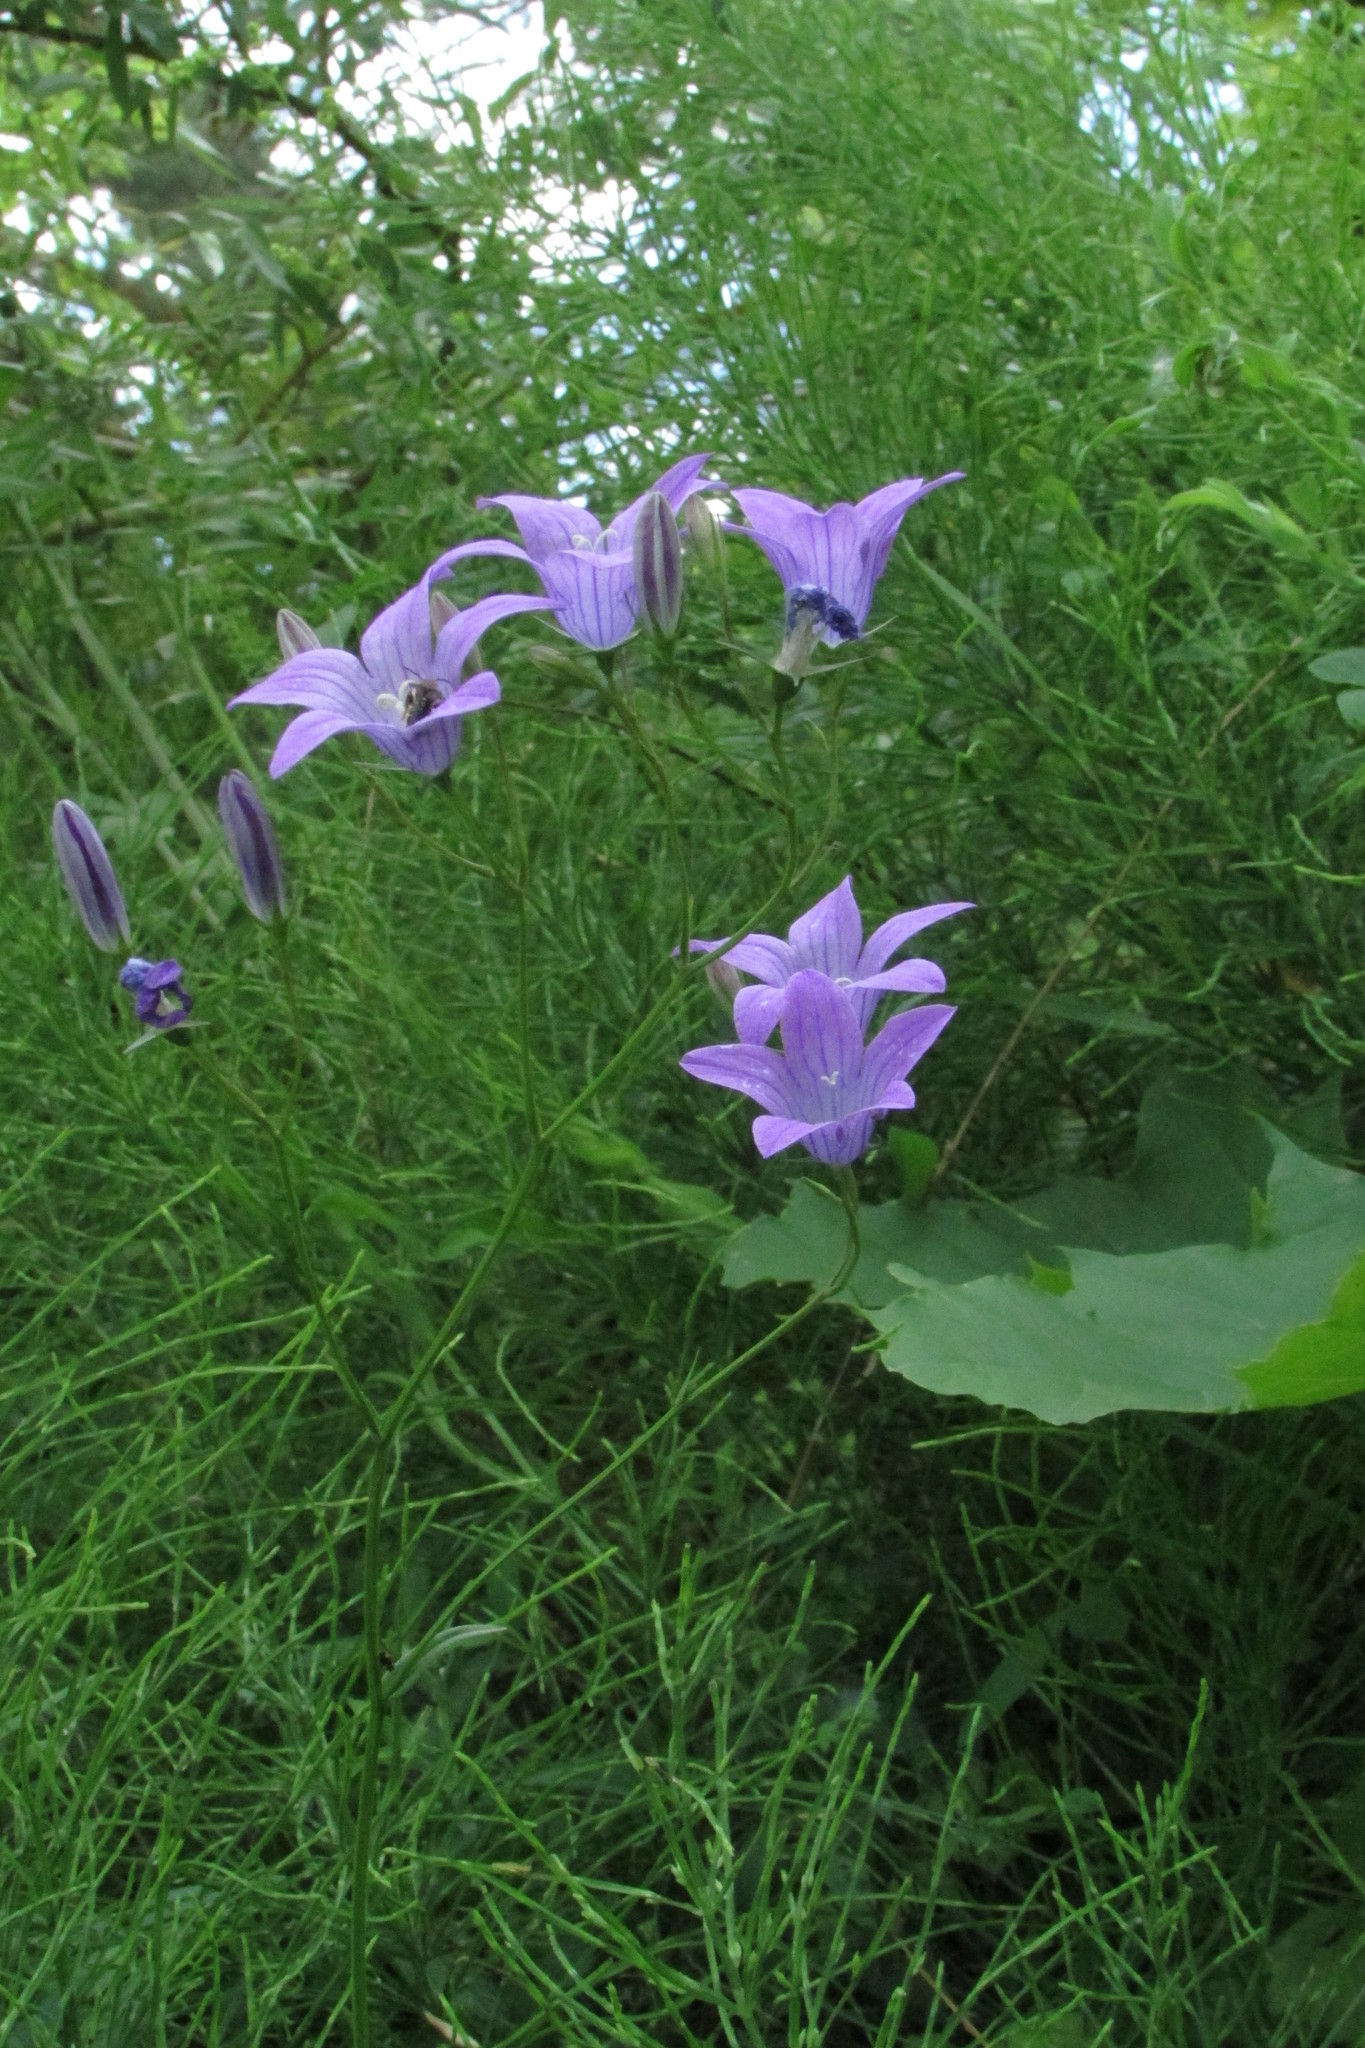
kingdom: Plantae
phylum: Tracheophyta
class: Magnoliopsida
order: Asterales
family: Campanulaceae
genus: Campanula
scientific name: Campanula patula
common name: Spreading bellflower
